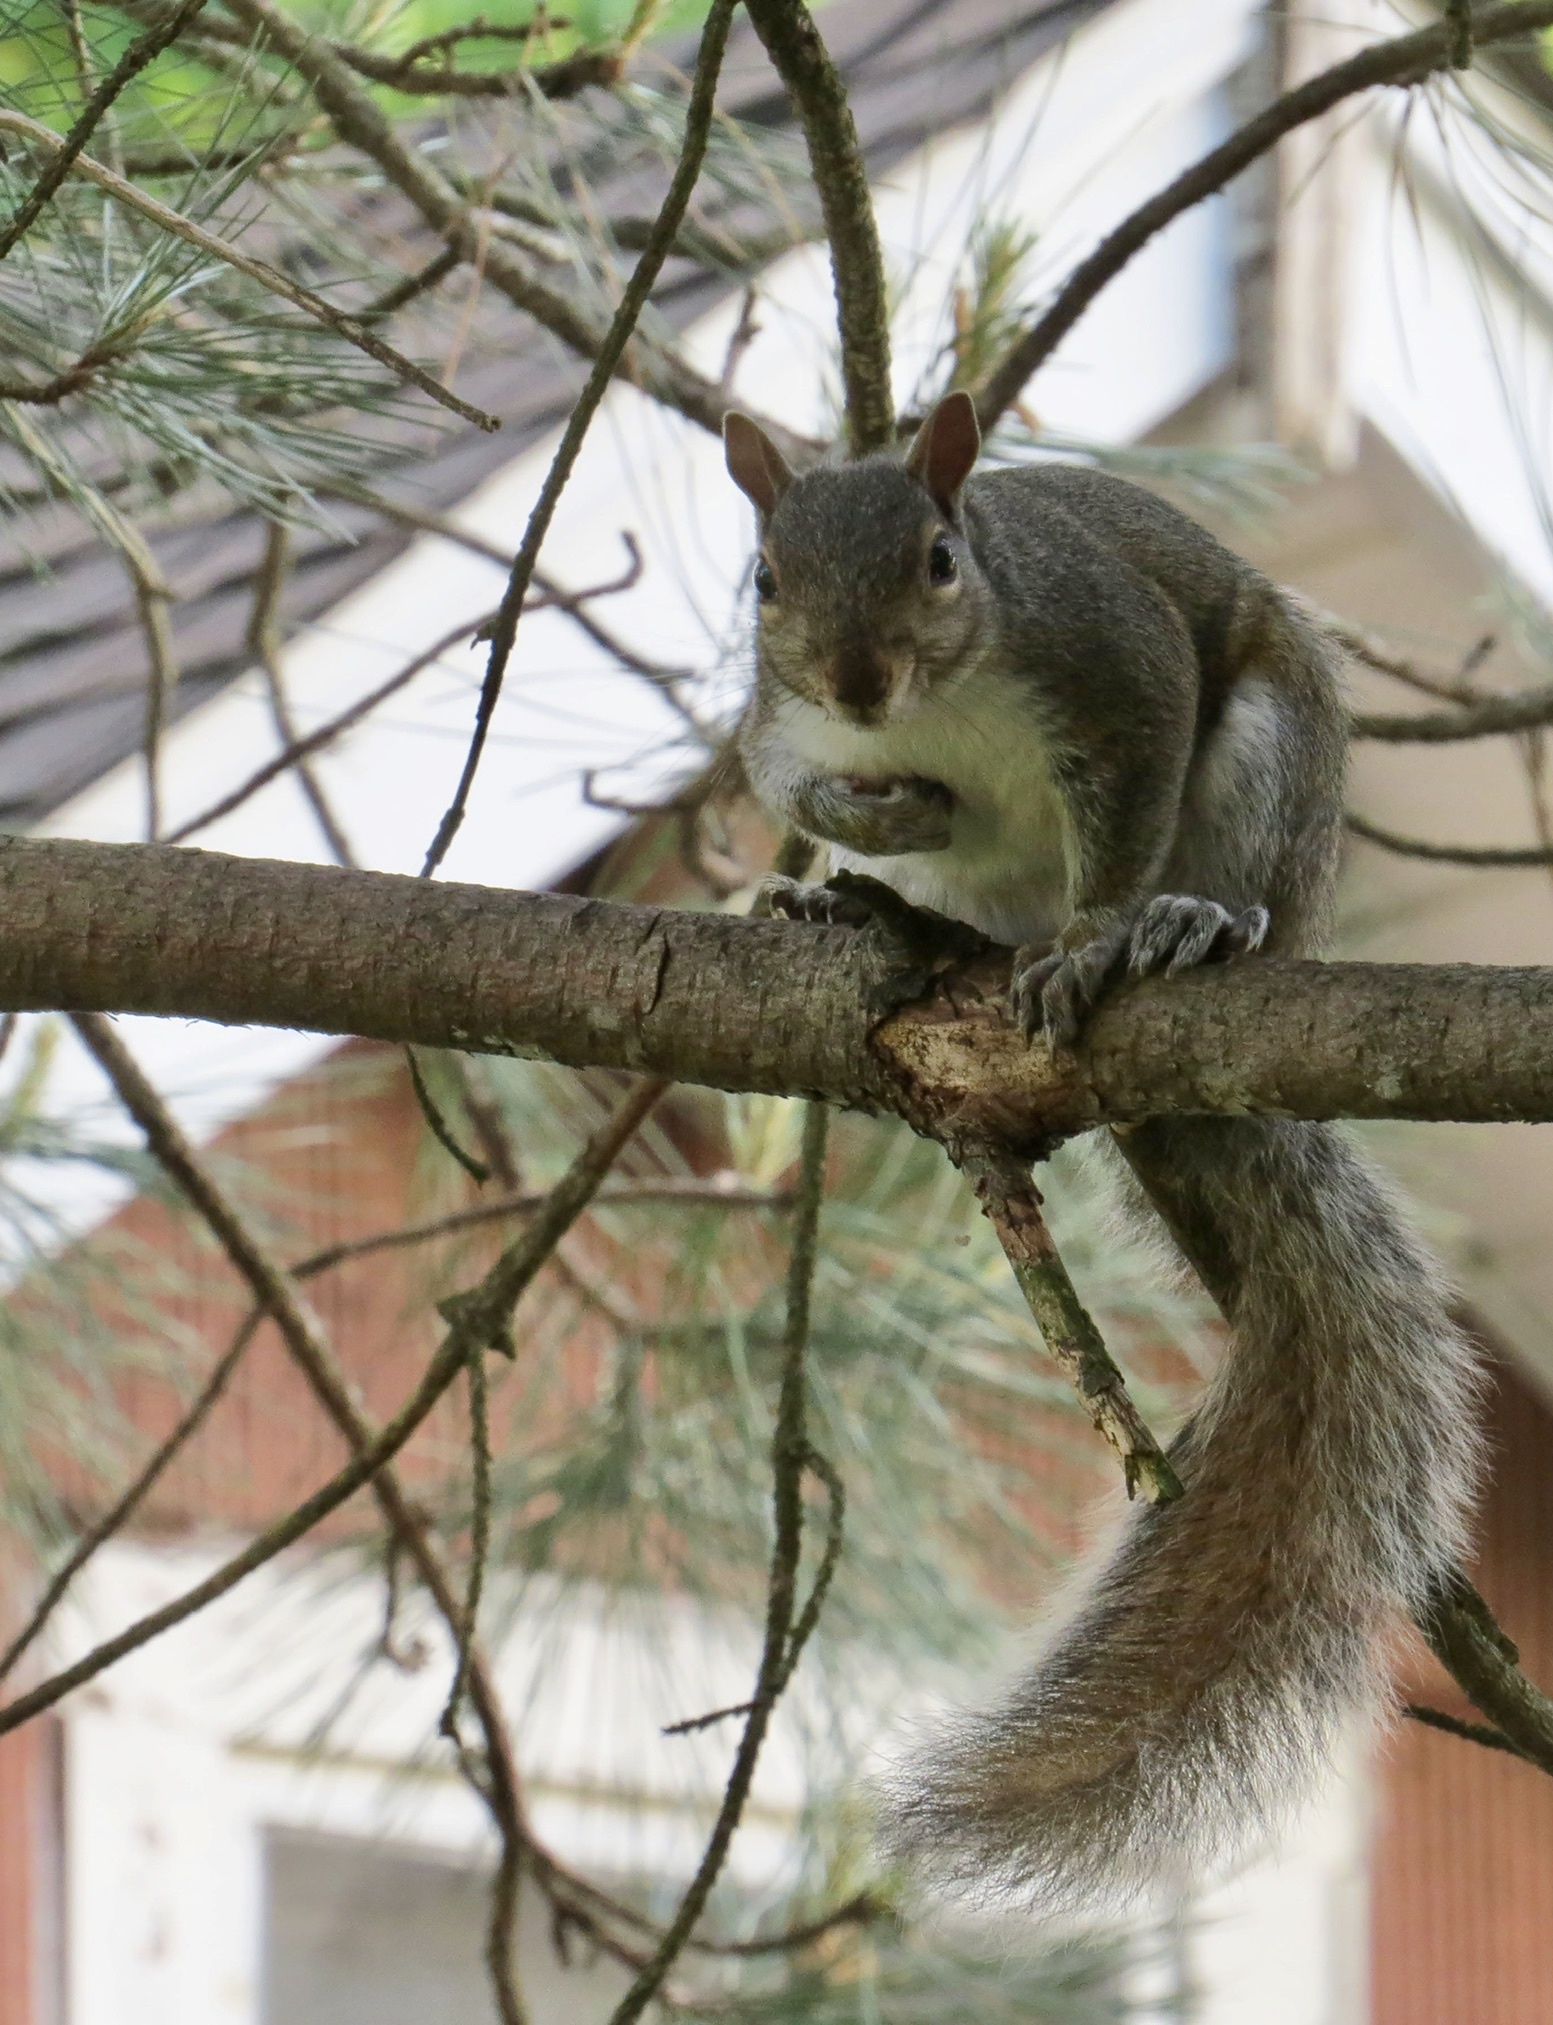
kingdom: Animalia
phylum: Chordata
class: Mammalia
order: Rodentia
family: Sciuridae
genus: Sciurus
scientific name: Sciurus carolinensis
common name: Eastern gray squirrel
